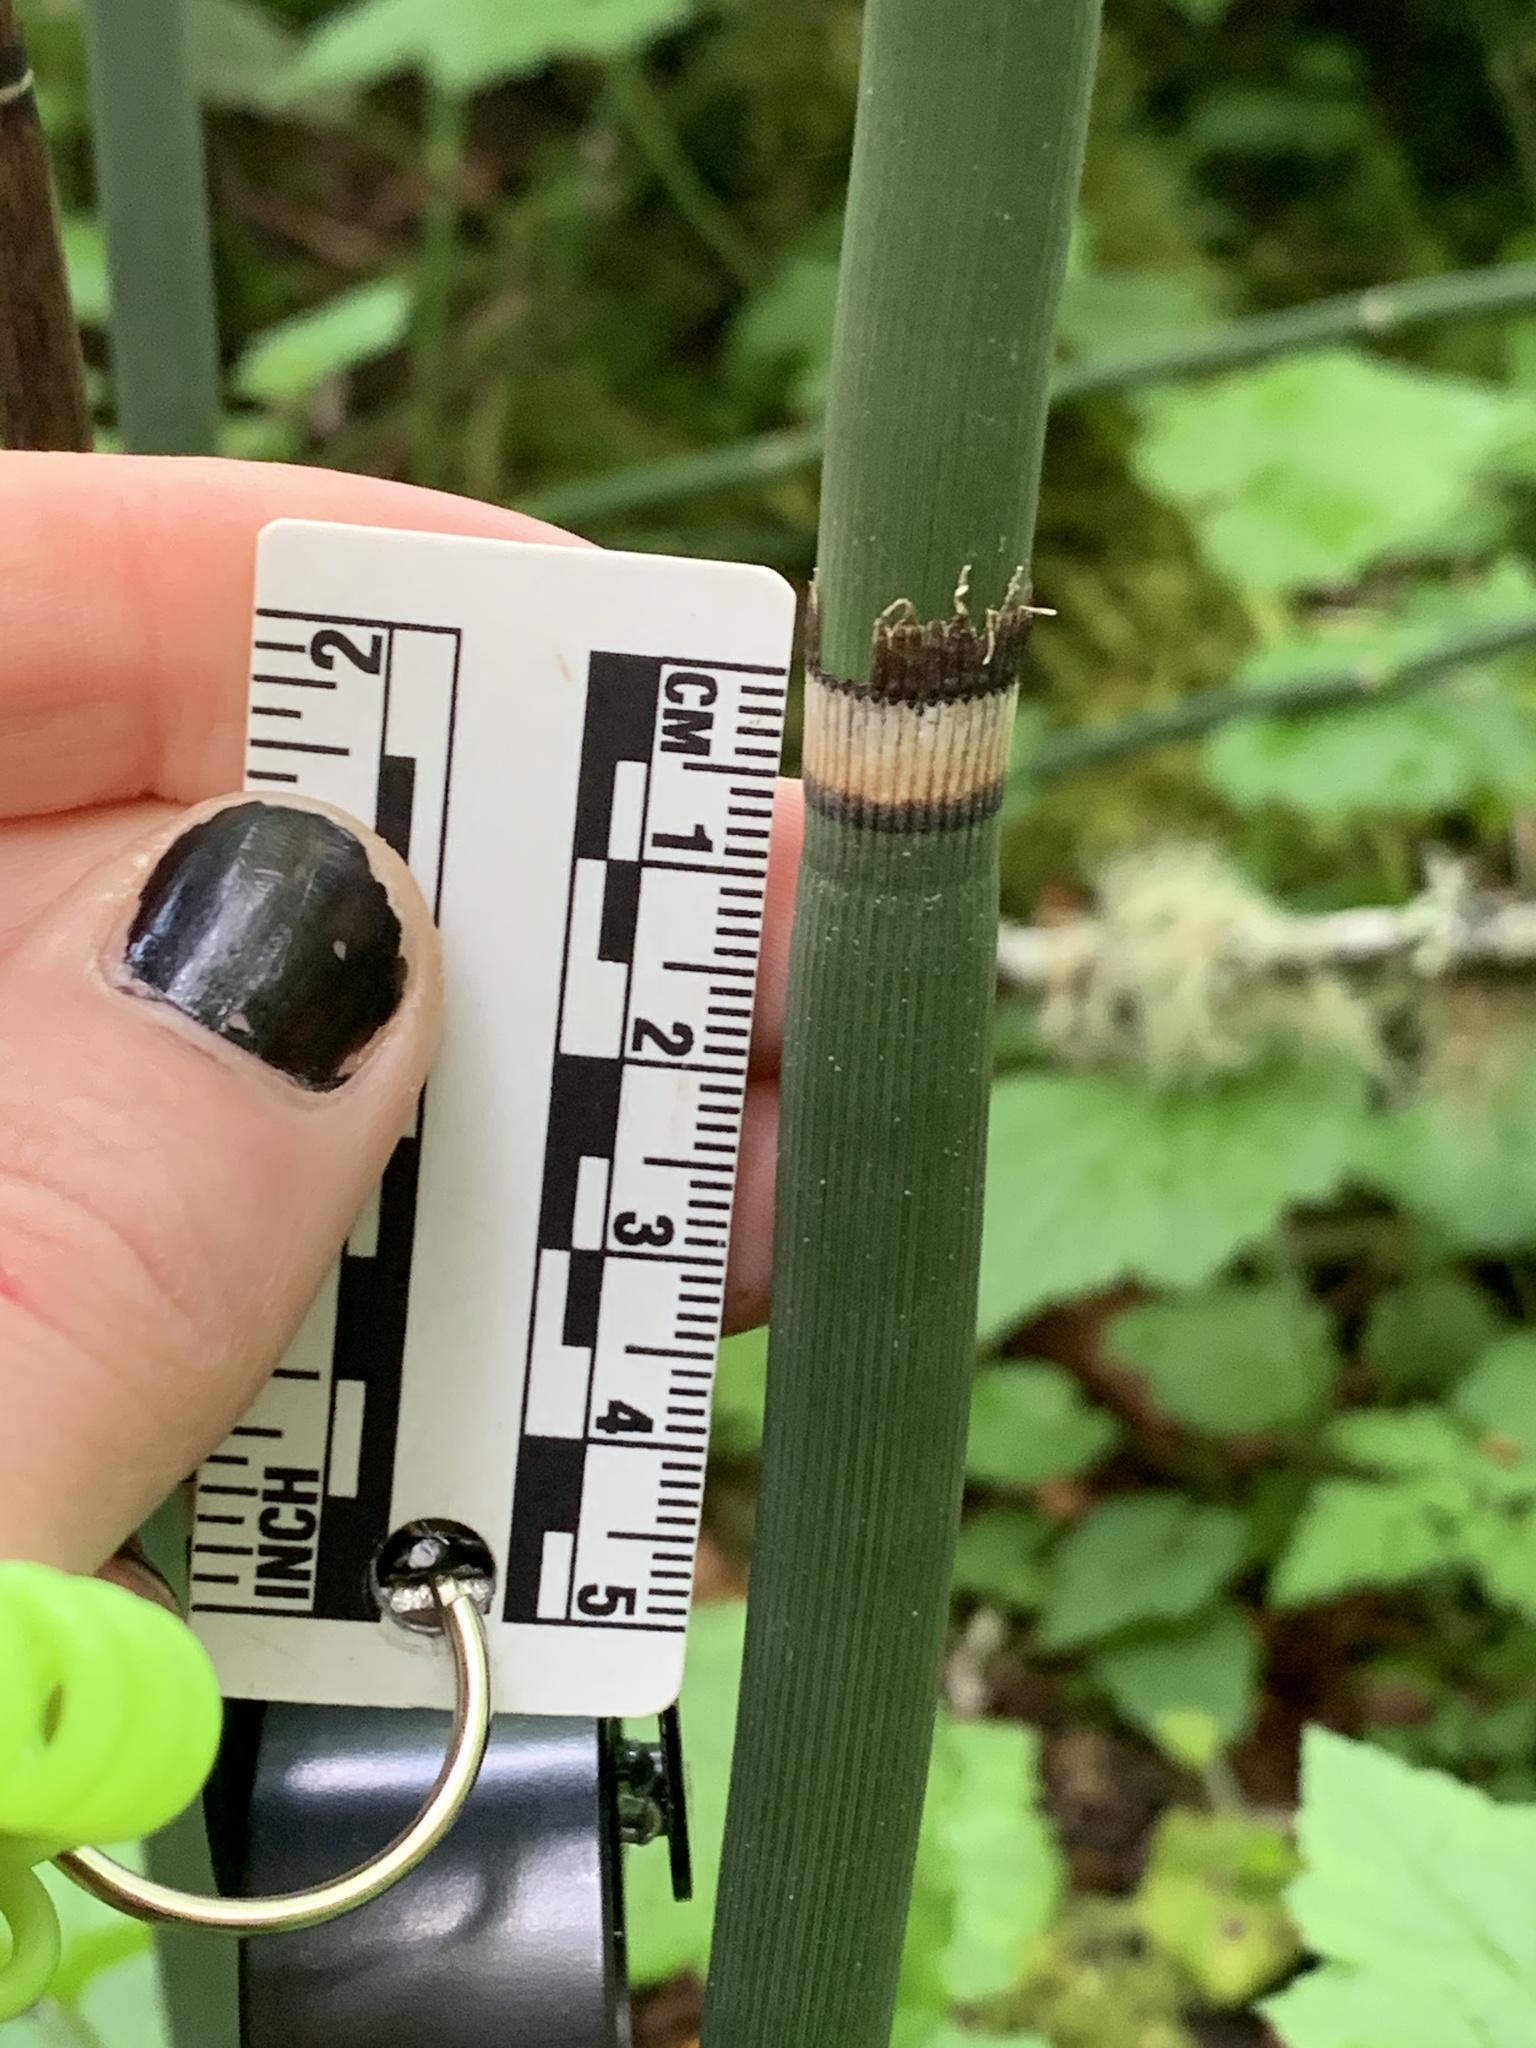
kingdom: Plantae
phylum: Tracheophyta
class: Polypodiopsida
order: Equisetales
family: Equisetaceae
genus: Equisetum
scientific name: Equisetum hyemale
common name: Rough horsetail
